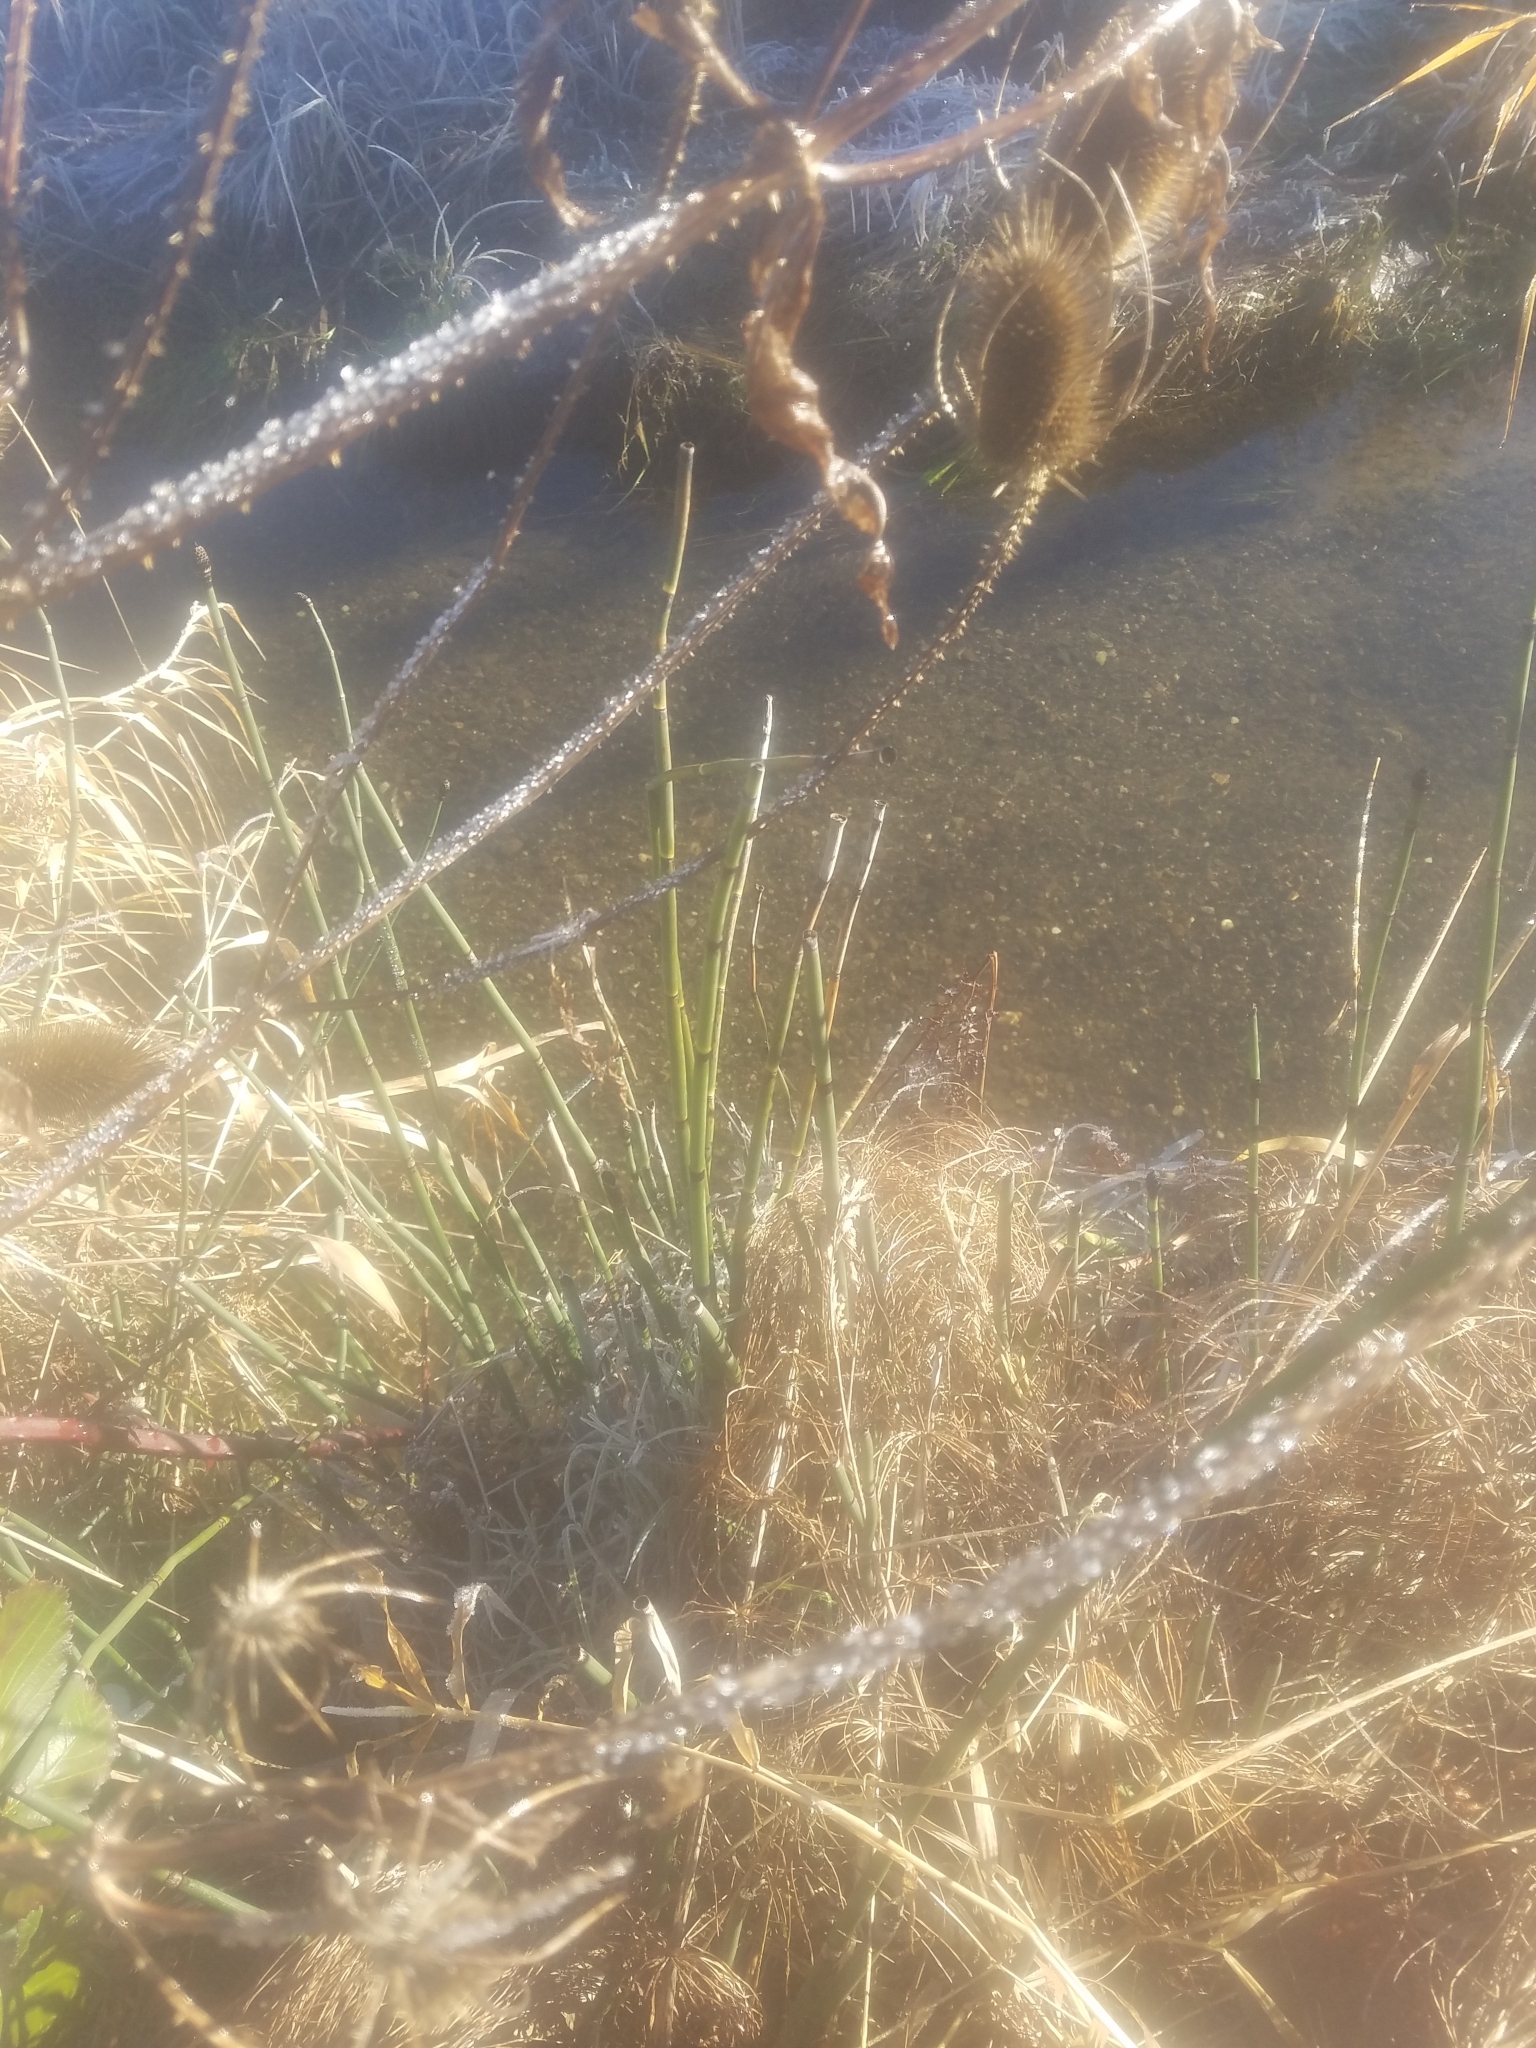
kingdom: Plantae
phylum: Tracheophyta
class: Polypodiopsida
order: Equisetales
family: Equisetaceae
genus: Equisetum
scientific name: Equisetum praealtum
